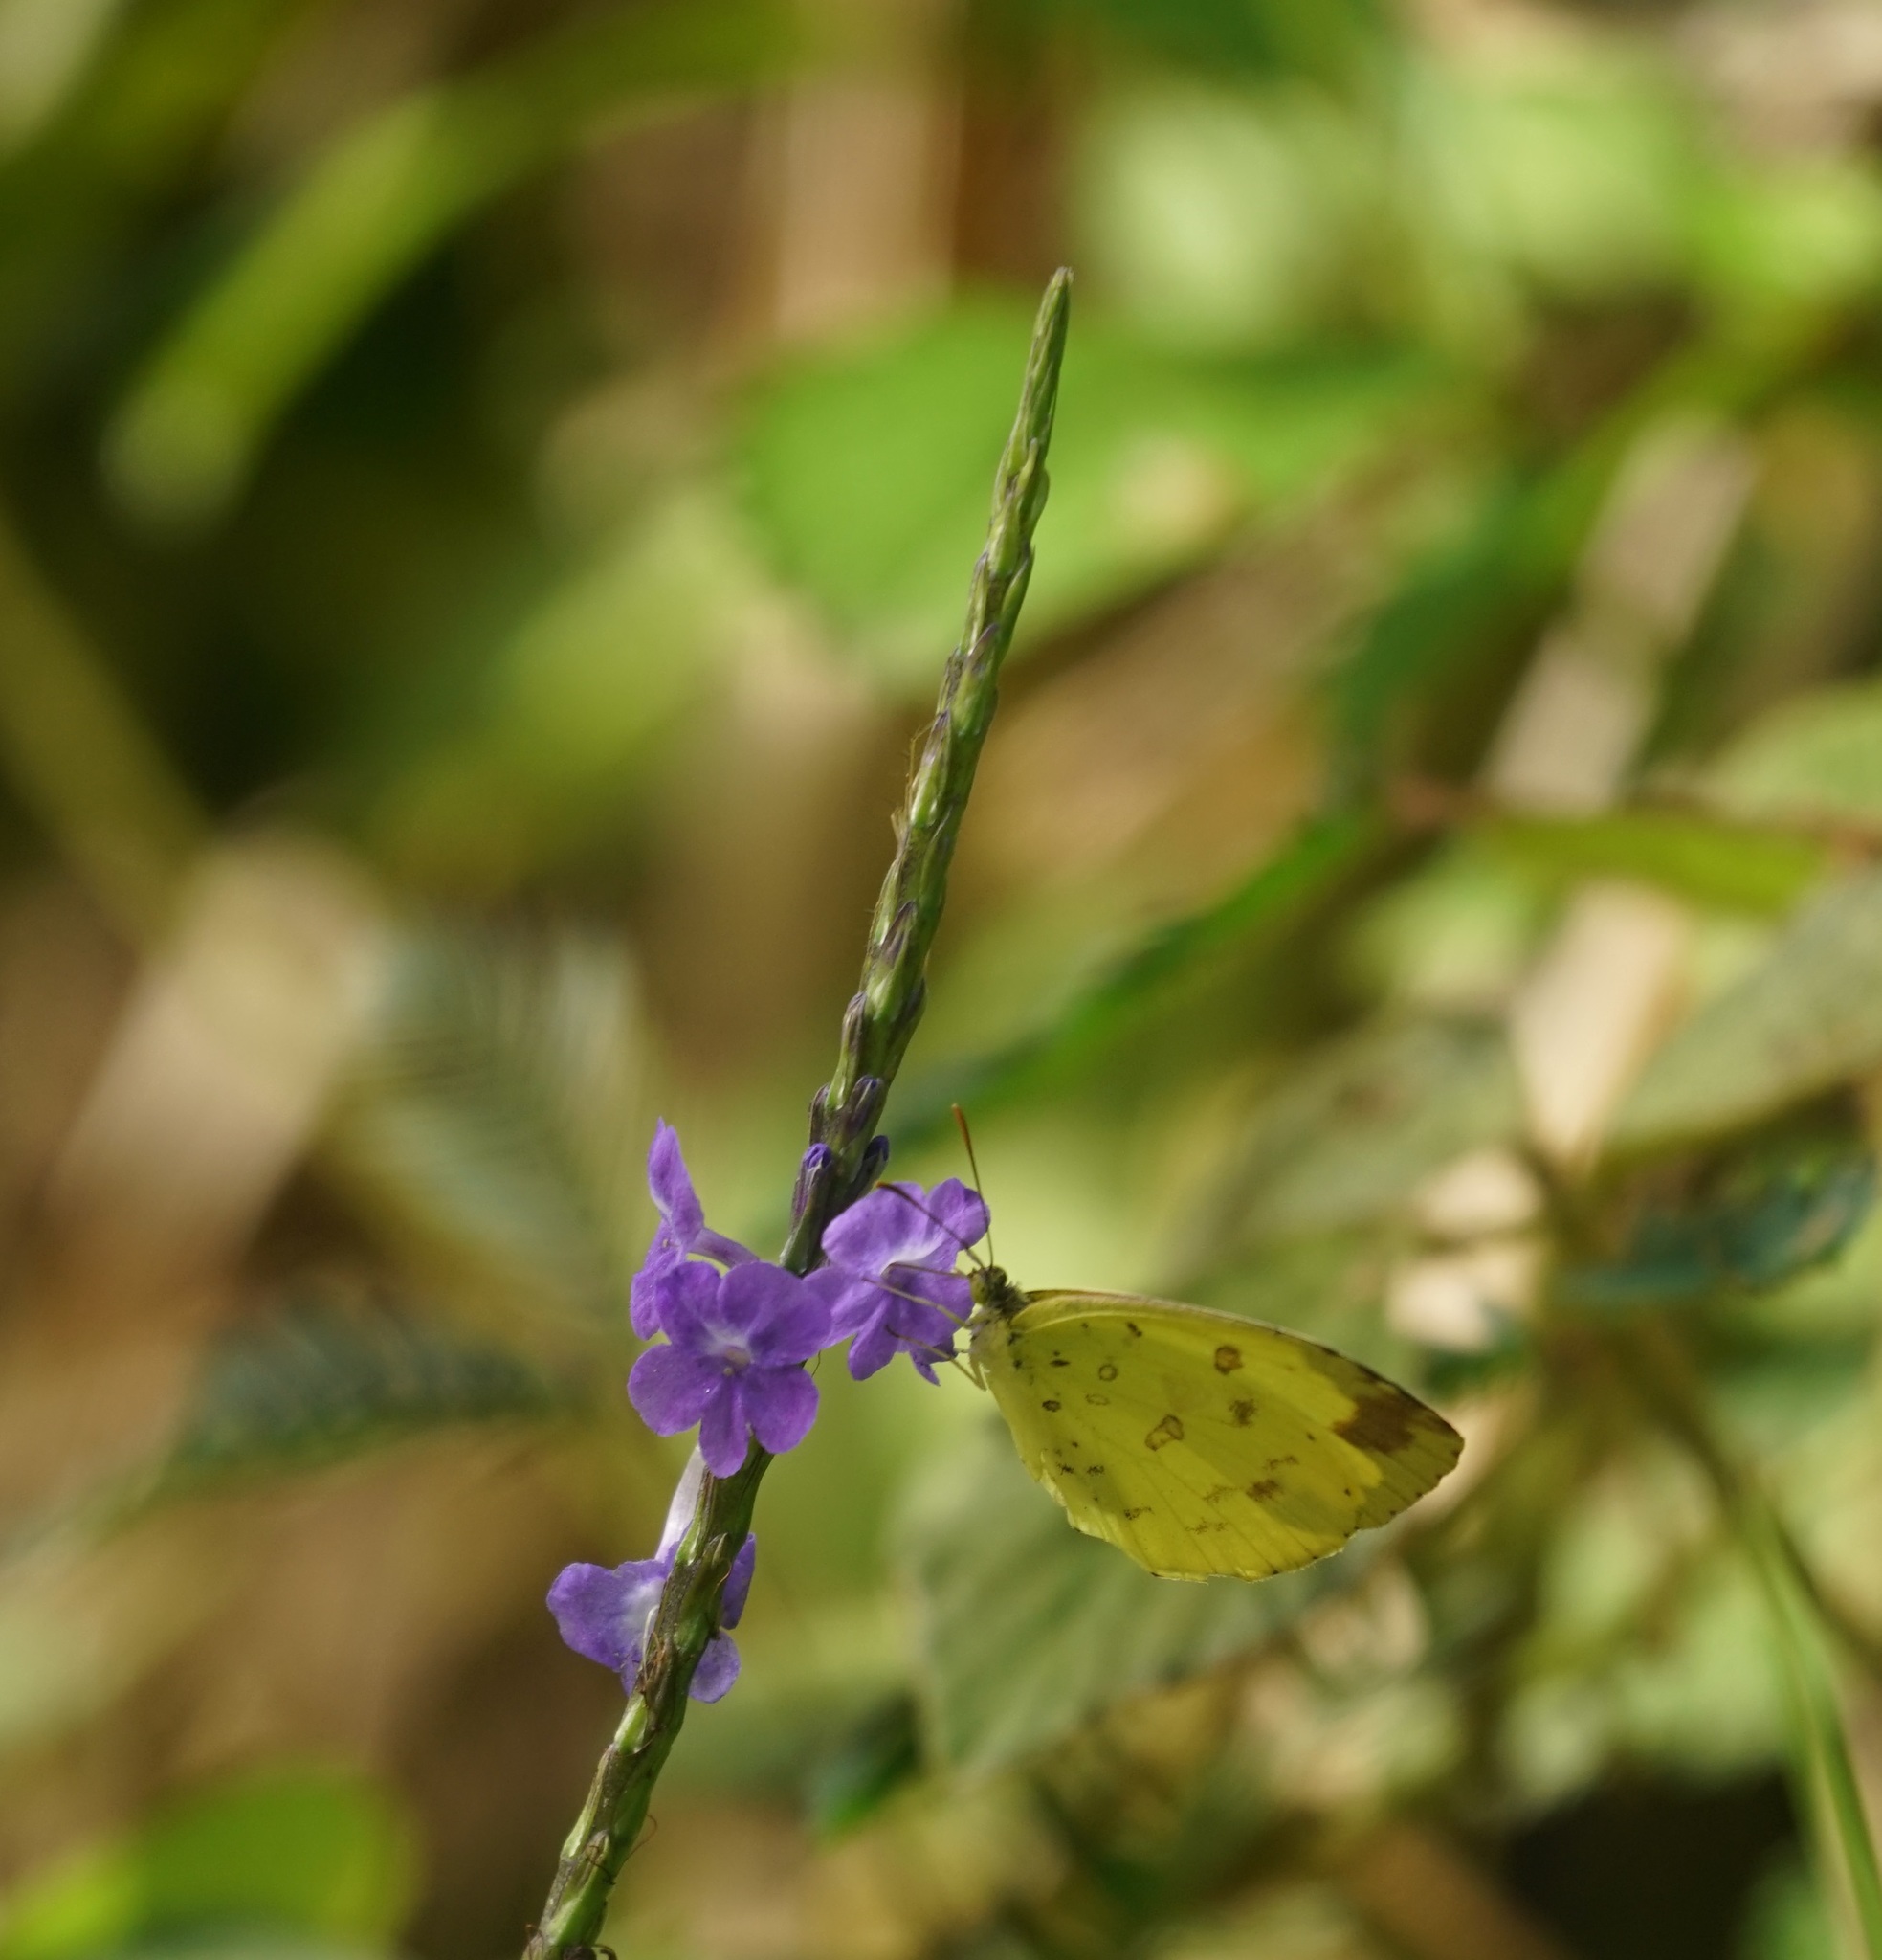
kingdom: Animalia
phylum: Arthropoda
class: Insecta
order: Lepidoptera
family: Pieridae
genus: Eurema
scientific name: Eurema hecabe
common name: Pale grass yellow
